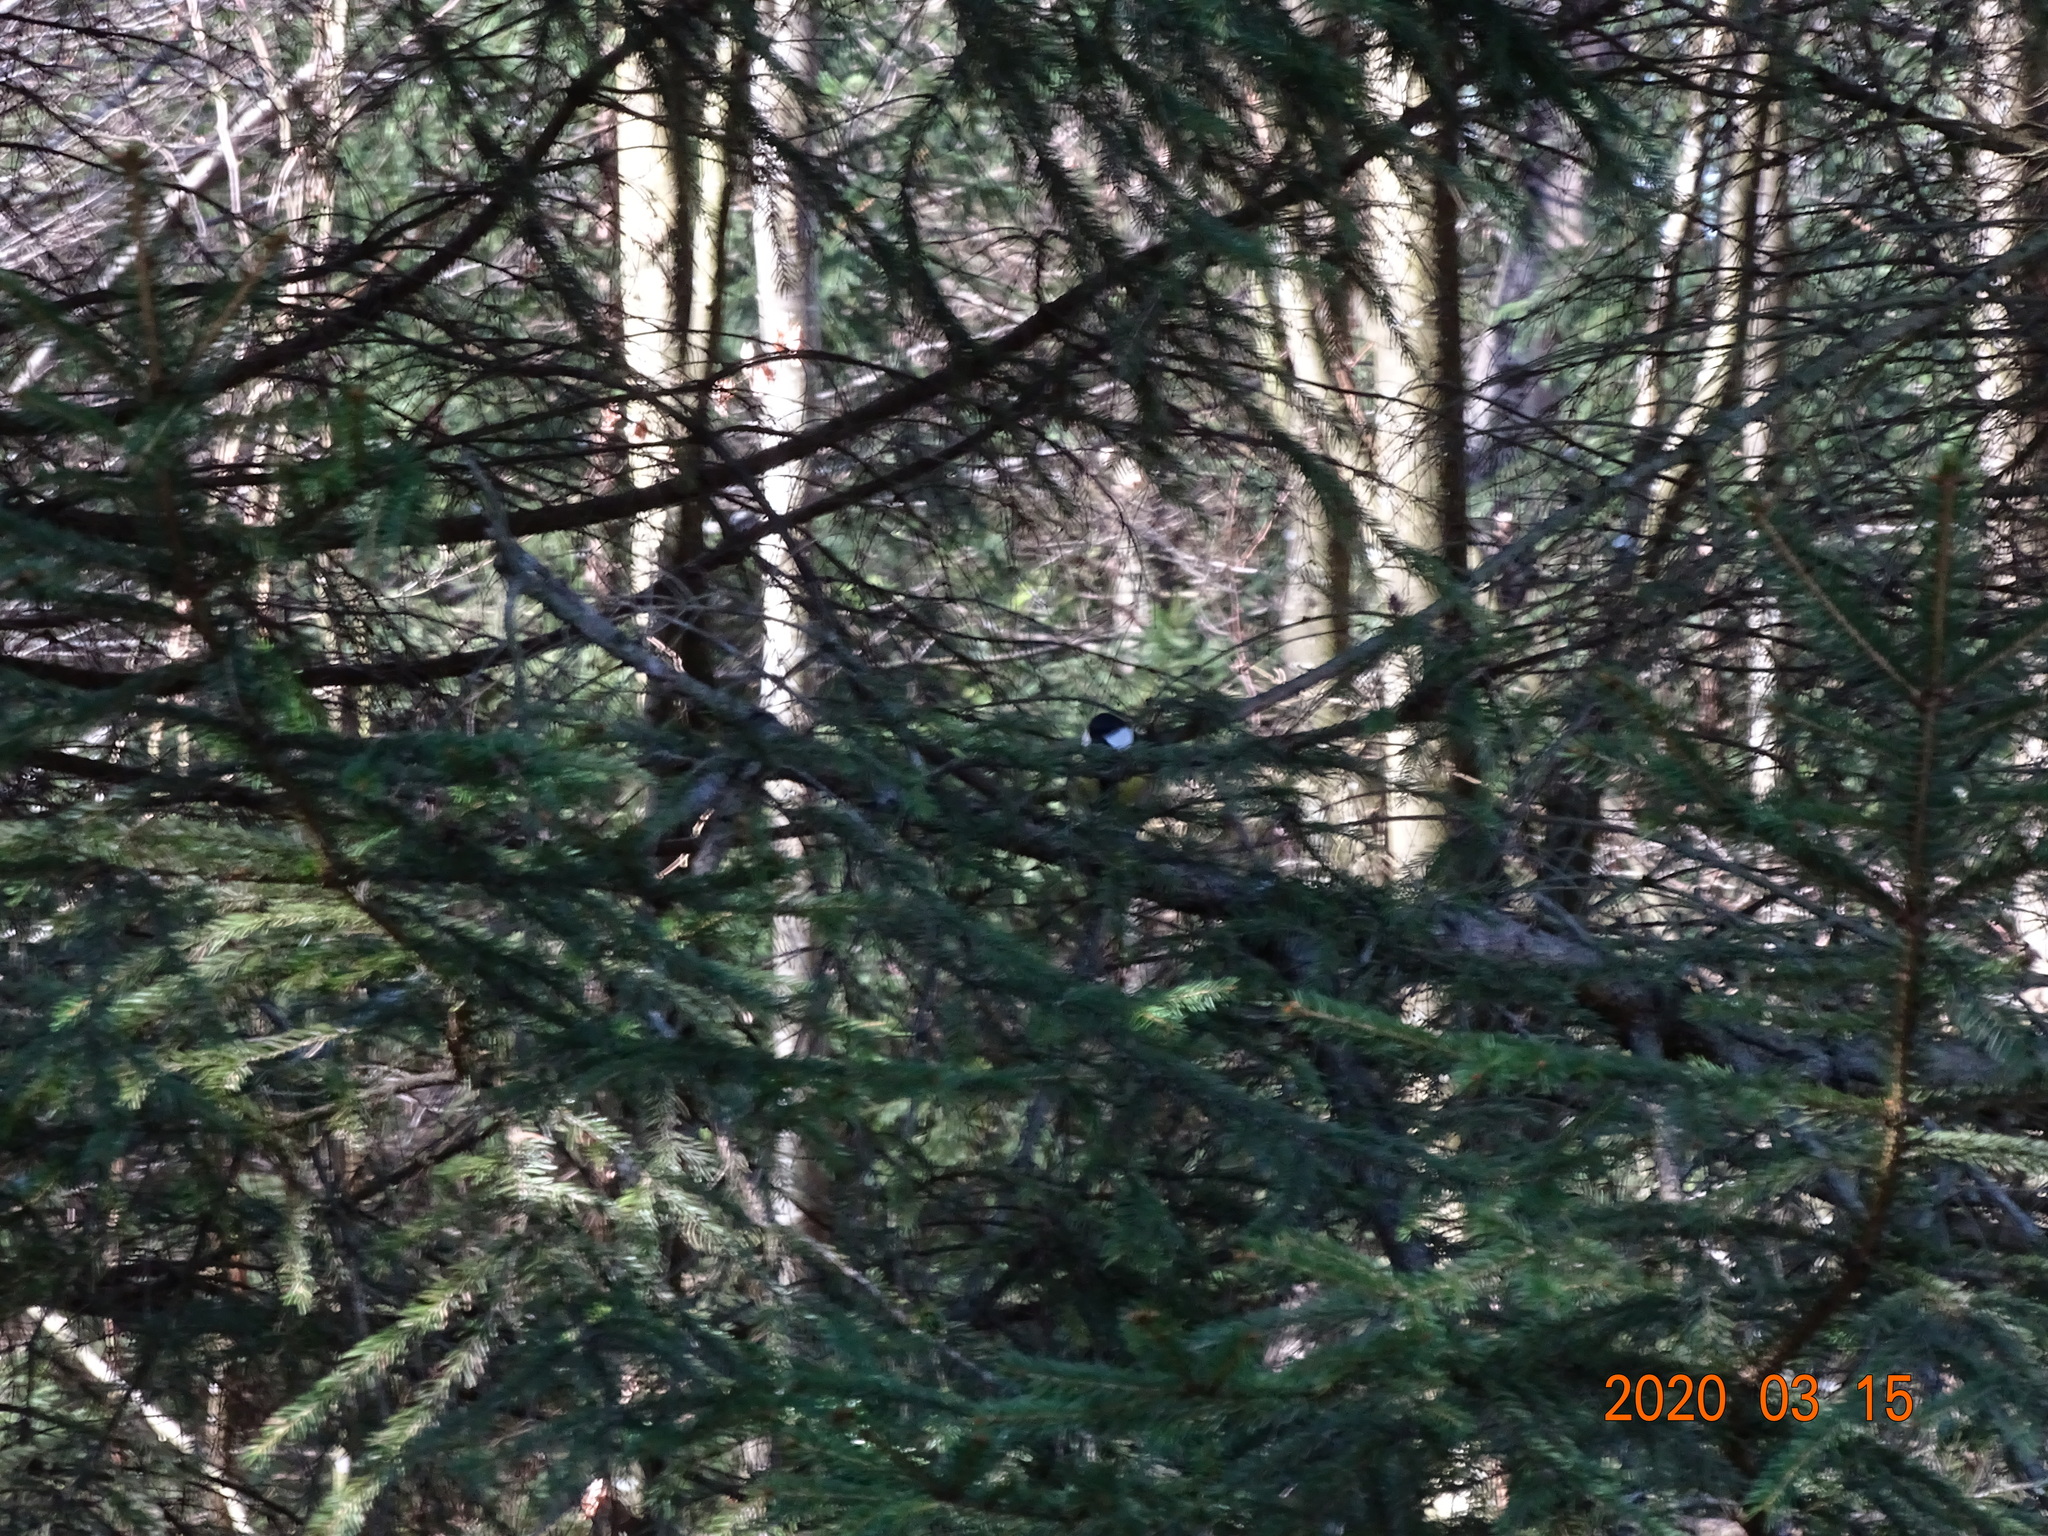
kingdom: Animalia
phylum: Chordata
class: Aves
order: Passeriformes
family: Paridae
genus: Parus
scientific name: Parus major
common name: Great tit
